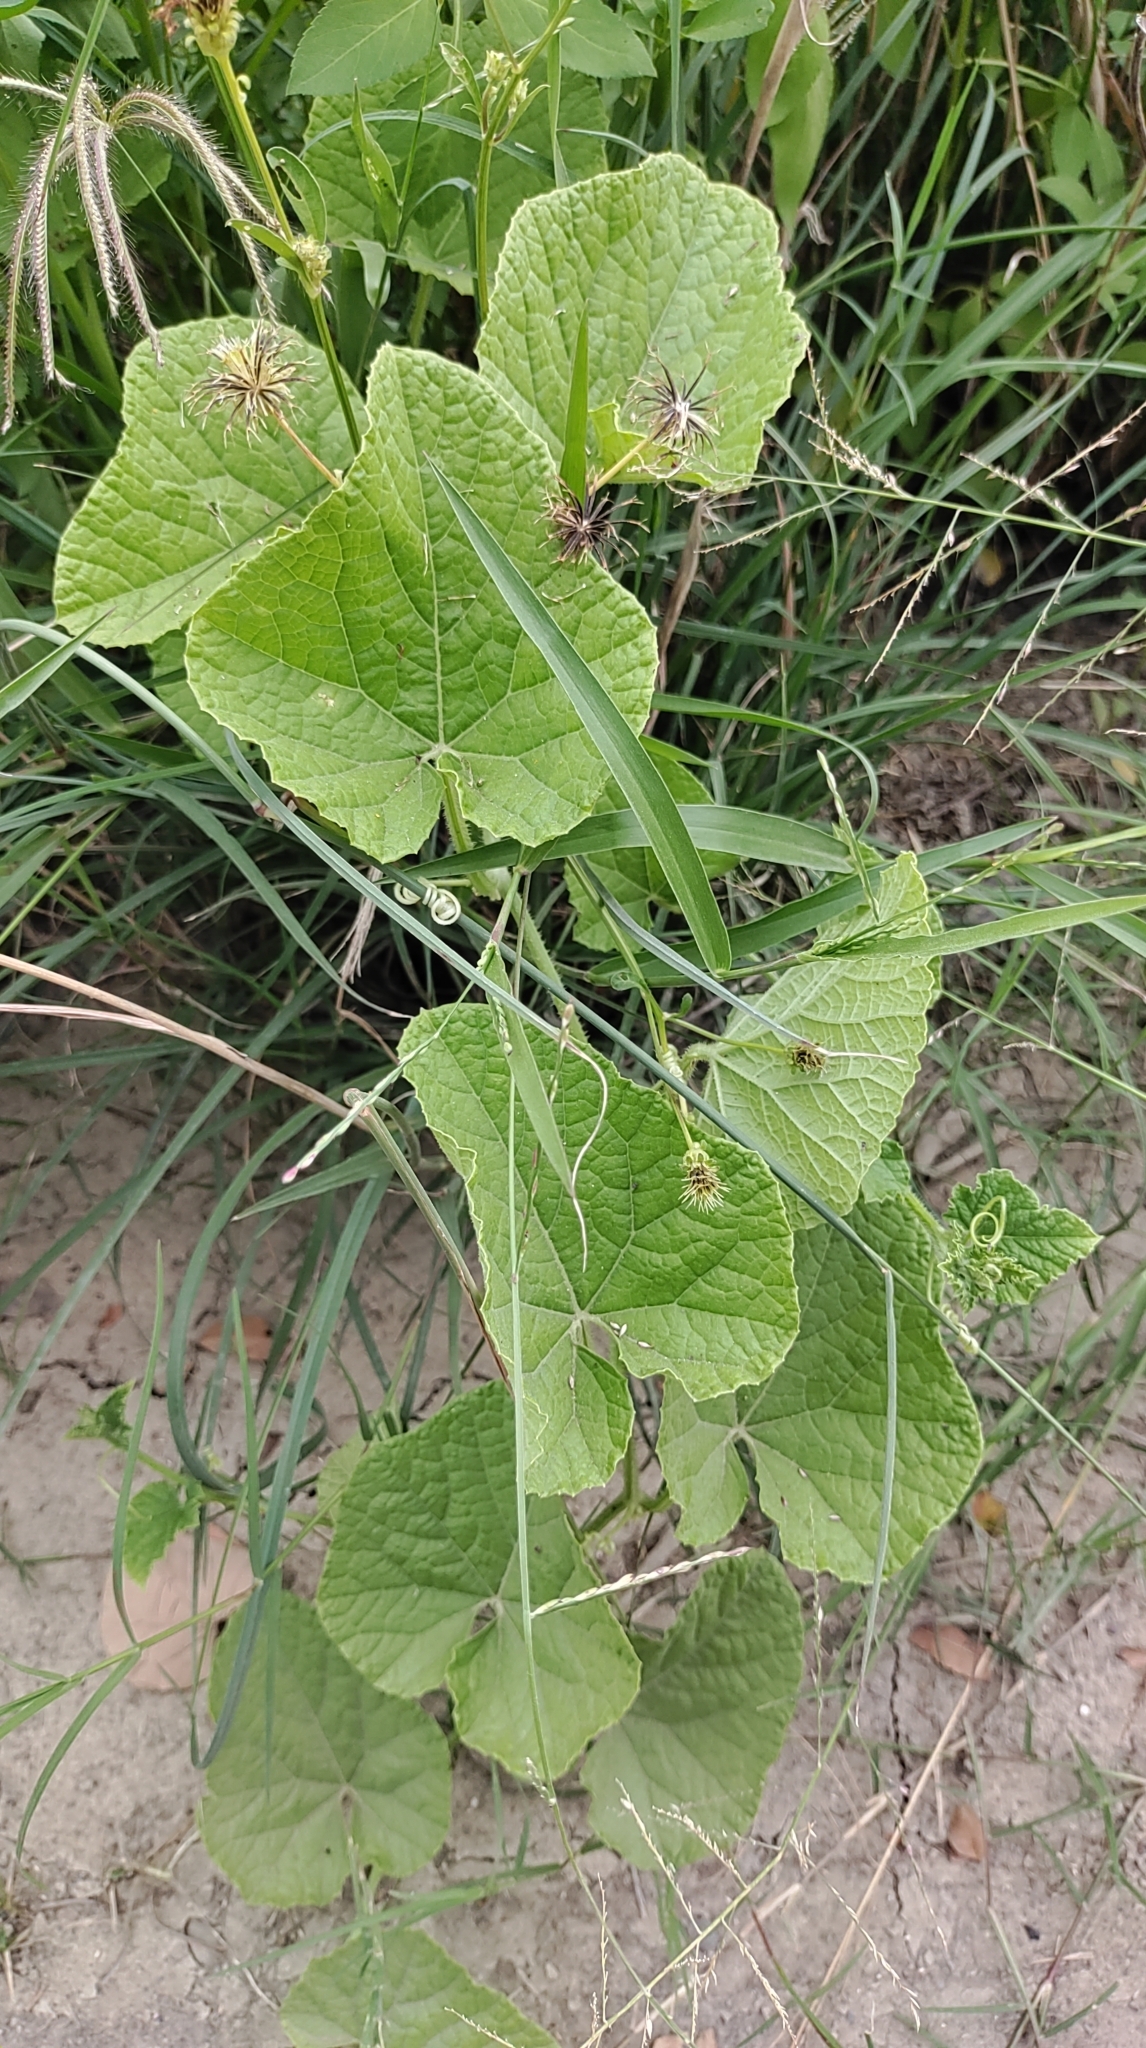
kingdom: Plantae
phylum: Tracheophyta
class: Magnoliopsida
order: Cucurbitales
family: Cucurbitaceae
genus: Cucumis
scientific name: Cucumis melo
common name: Melon
